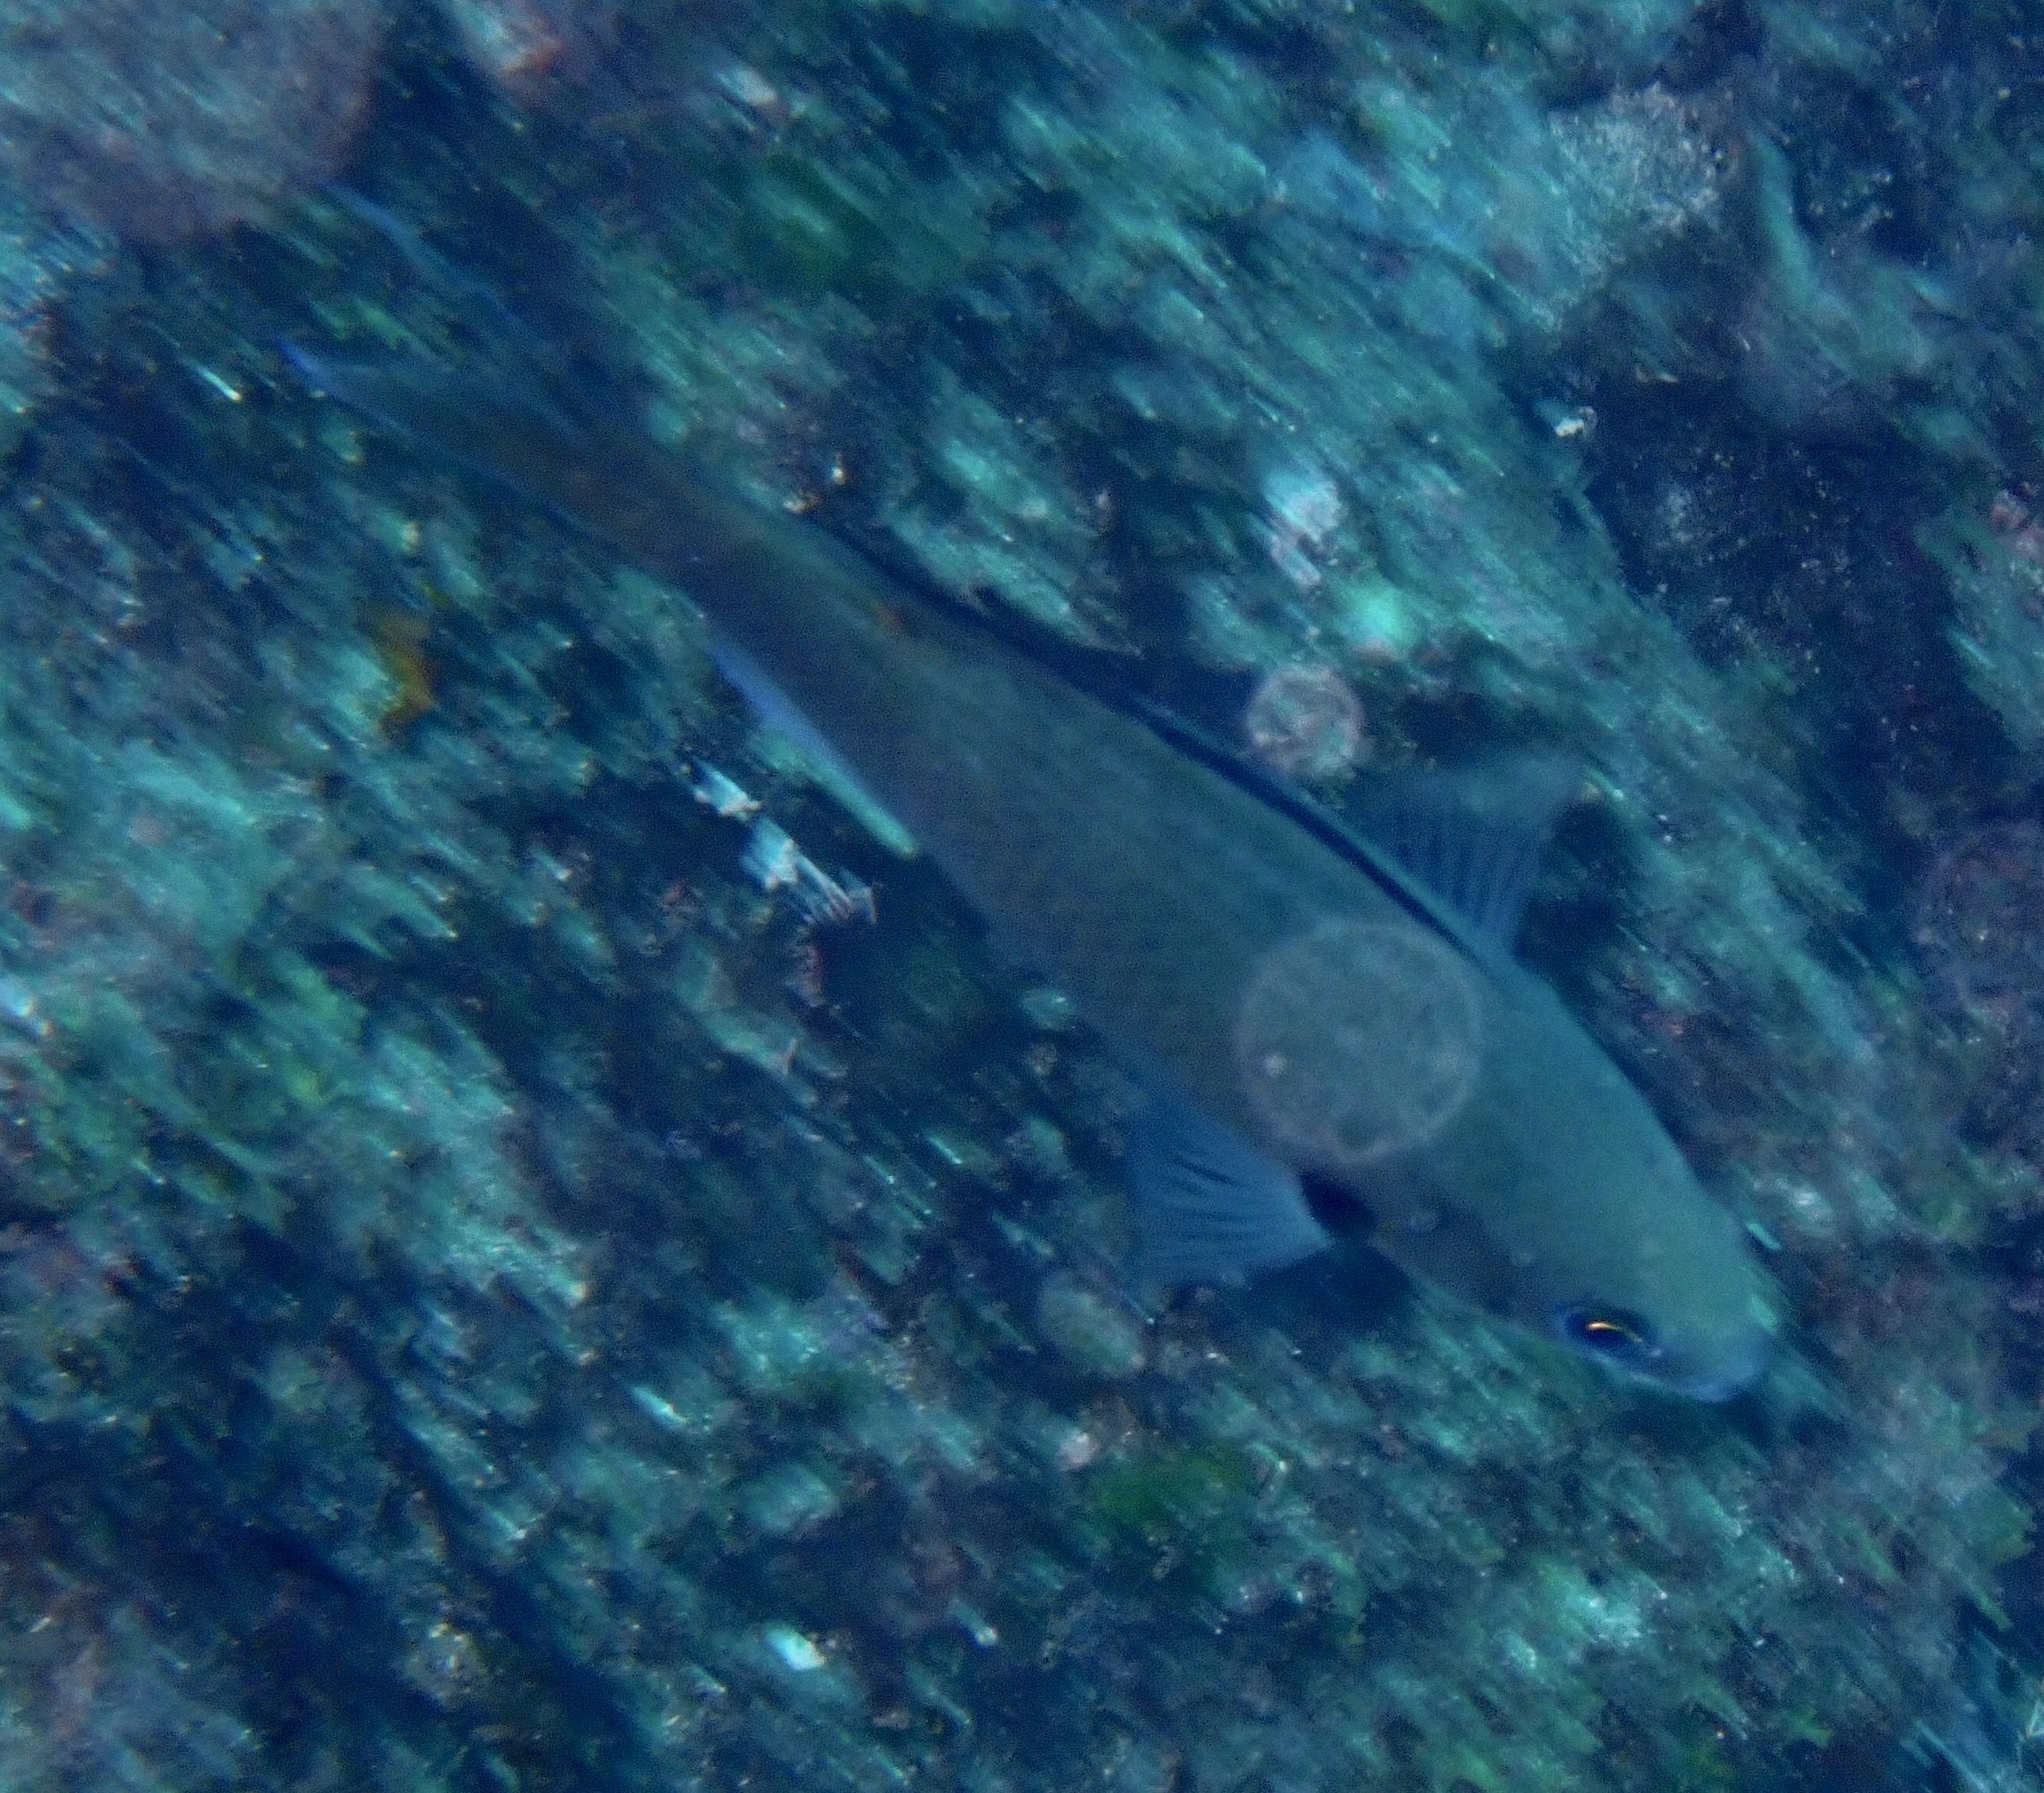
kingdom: Animalia
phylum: Chordata
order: Perciformes
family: Pomacentridae
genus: Chromis
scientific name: Chromis multilineata
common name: Brown chromis
